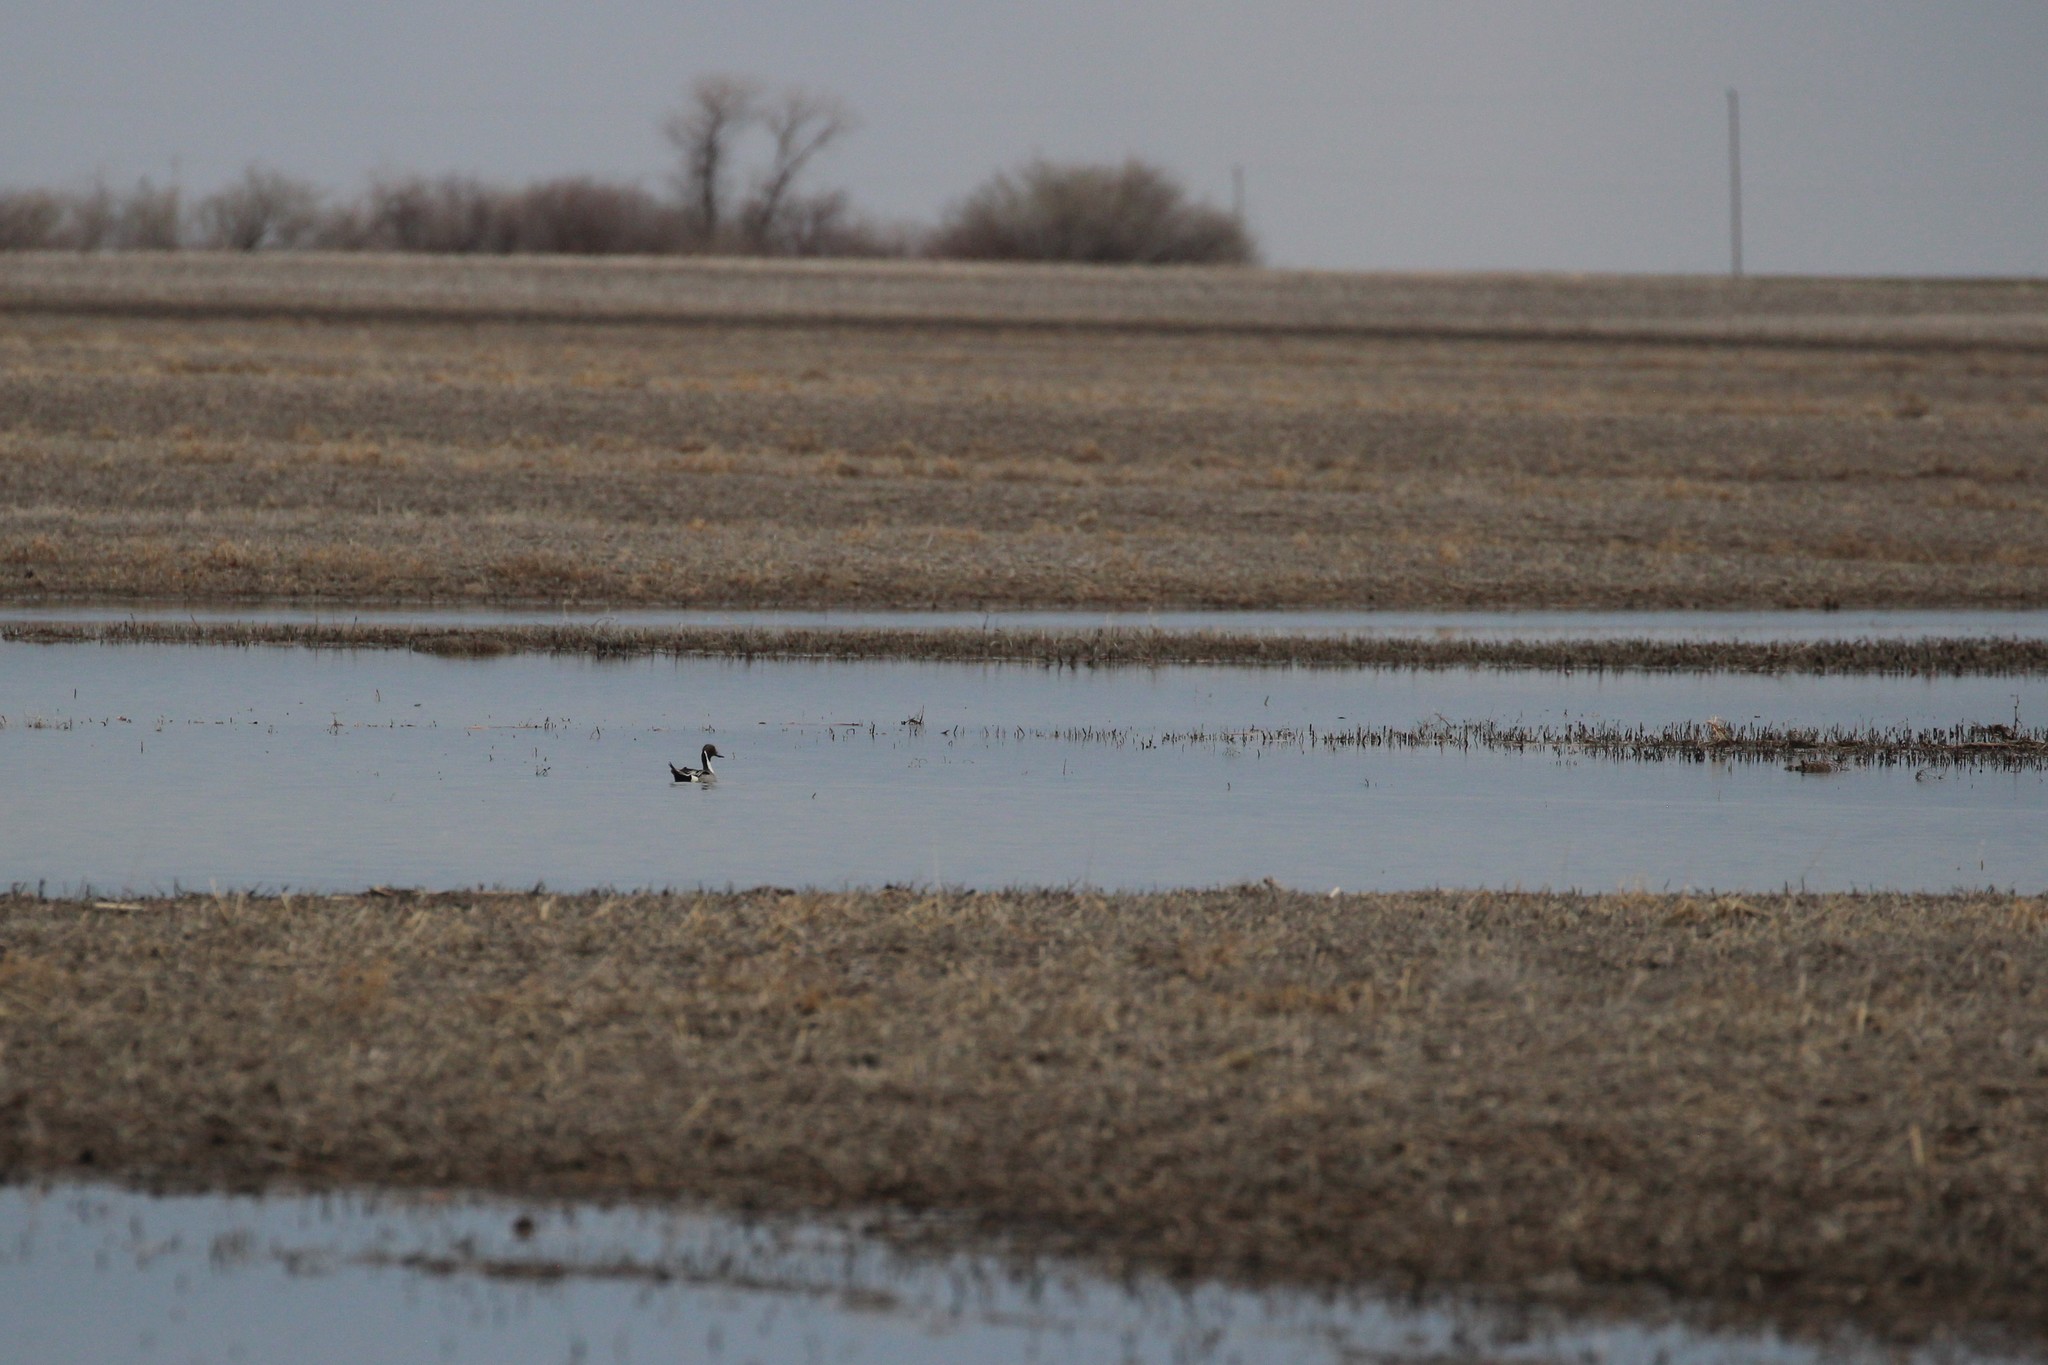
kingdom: Animalia
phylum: Chordata
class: Aves
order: Anseriformes
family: Anatidae
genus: Anas
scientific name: Anas acuta
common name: Northern pintail
